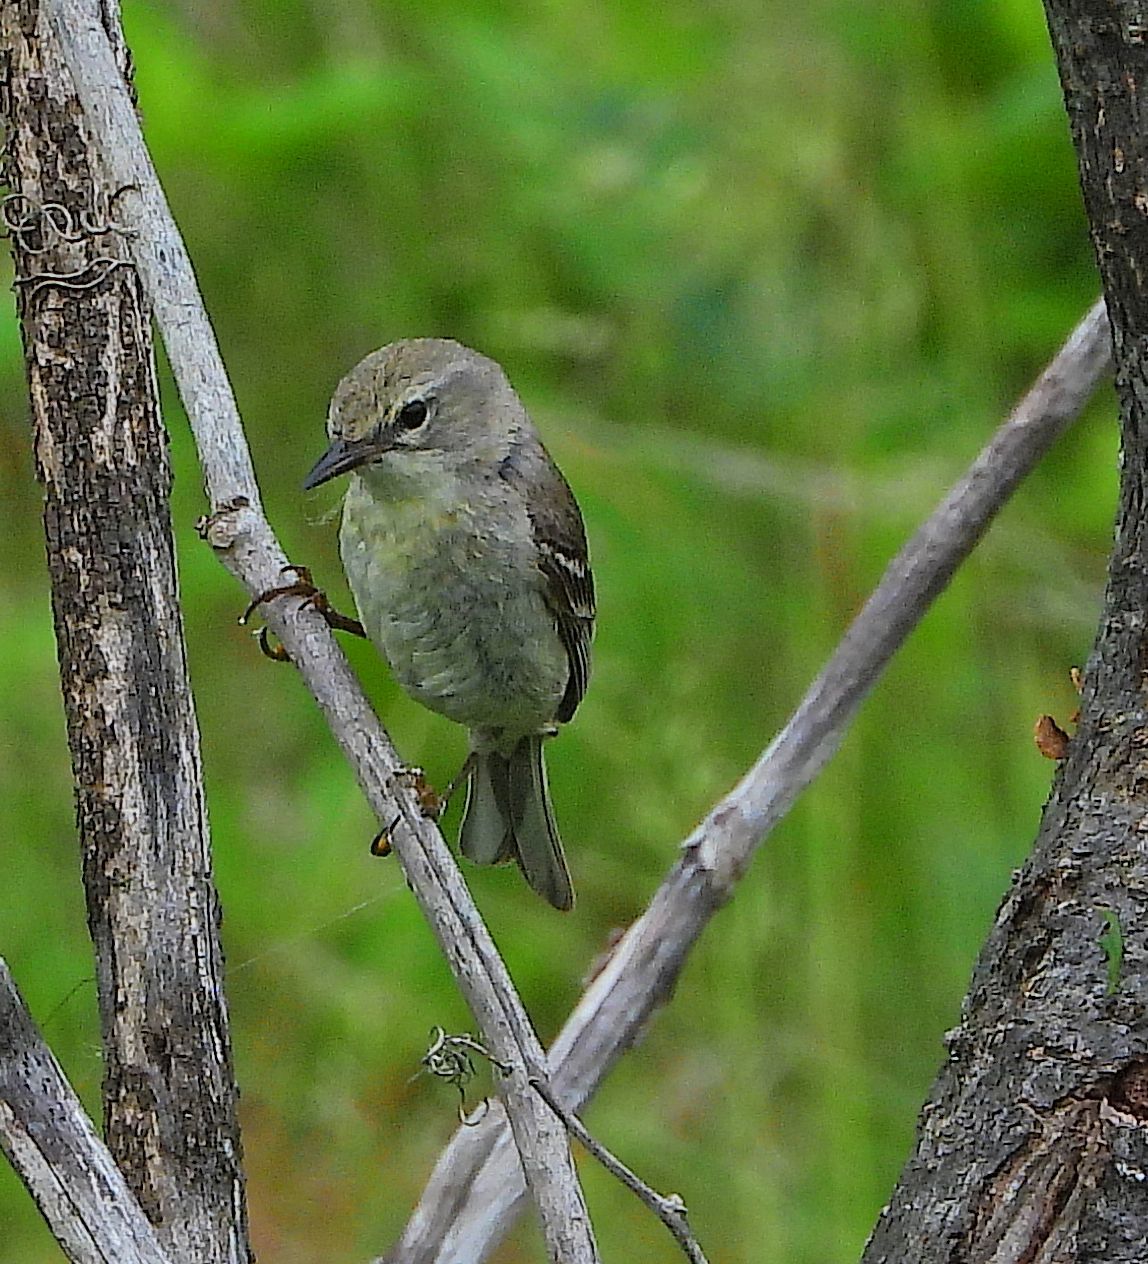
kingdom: Animalia
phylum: Chordata
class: Aves
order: Passeriformes
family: Parulidae
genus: Setophaga
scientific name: Setophaga pinus
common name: Pine warbler
